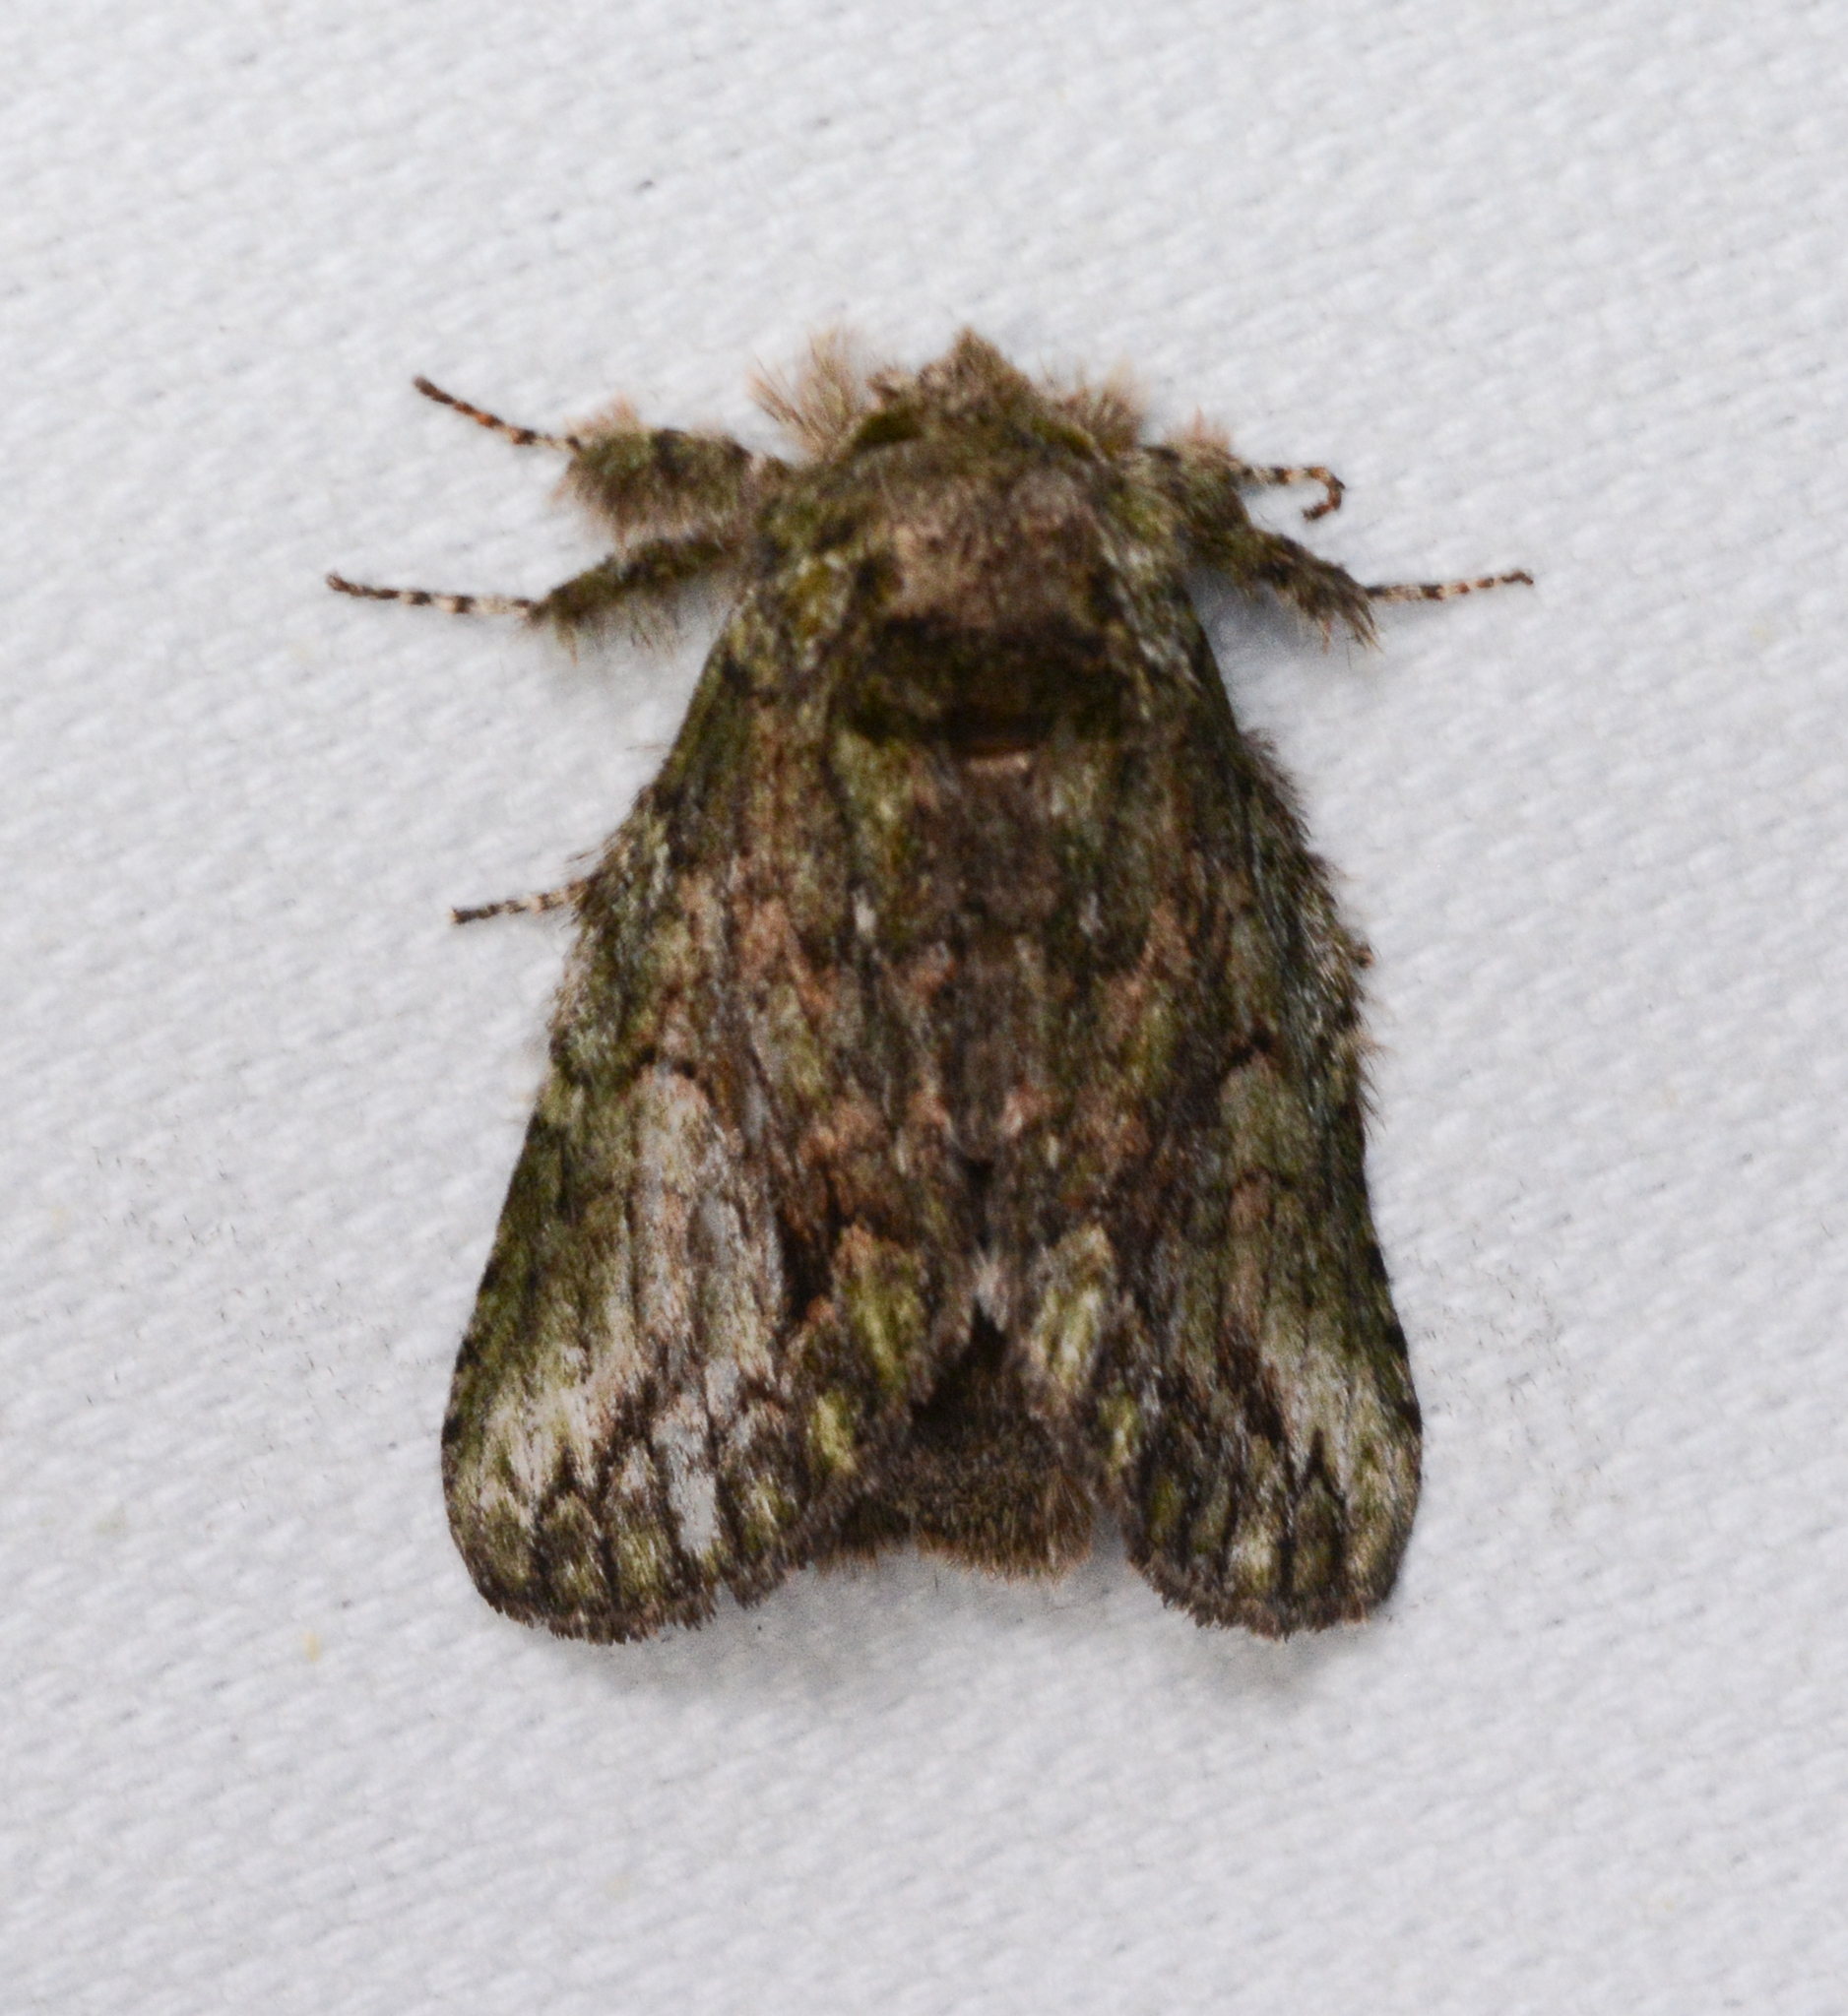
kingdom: Animalia
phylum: Arthropoda
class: Insecta
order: Lepidoptera
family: Notodontidae
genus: Heterocampa
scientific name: Heterocampa
